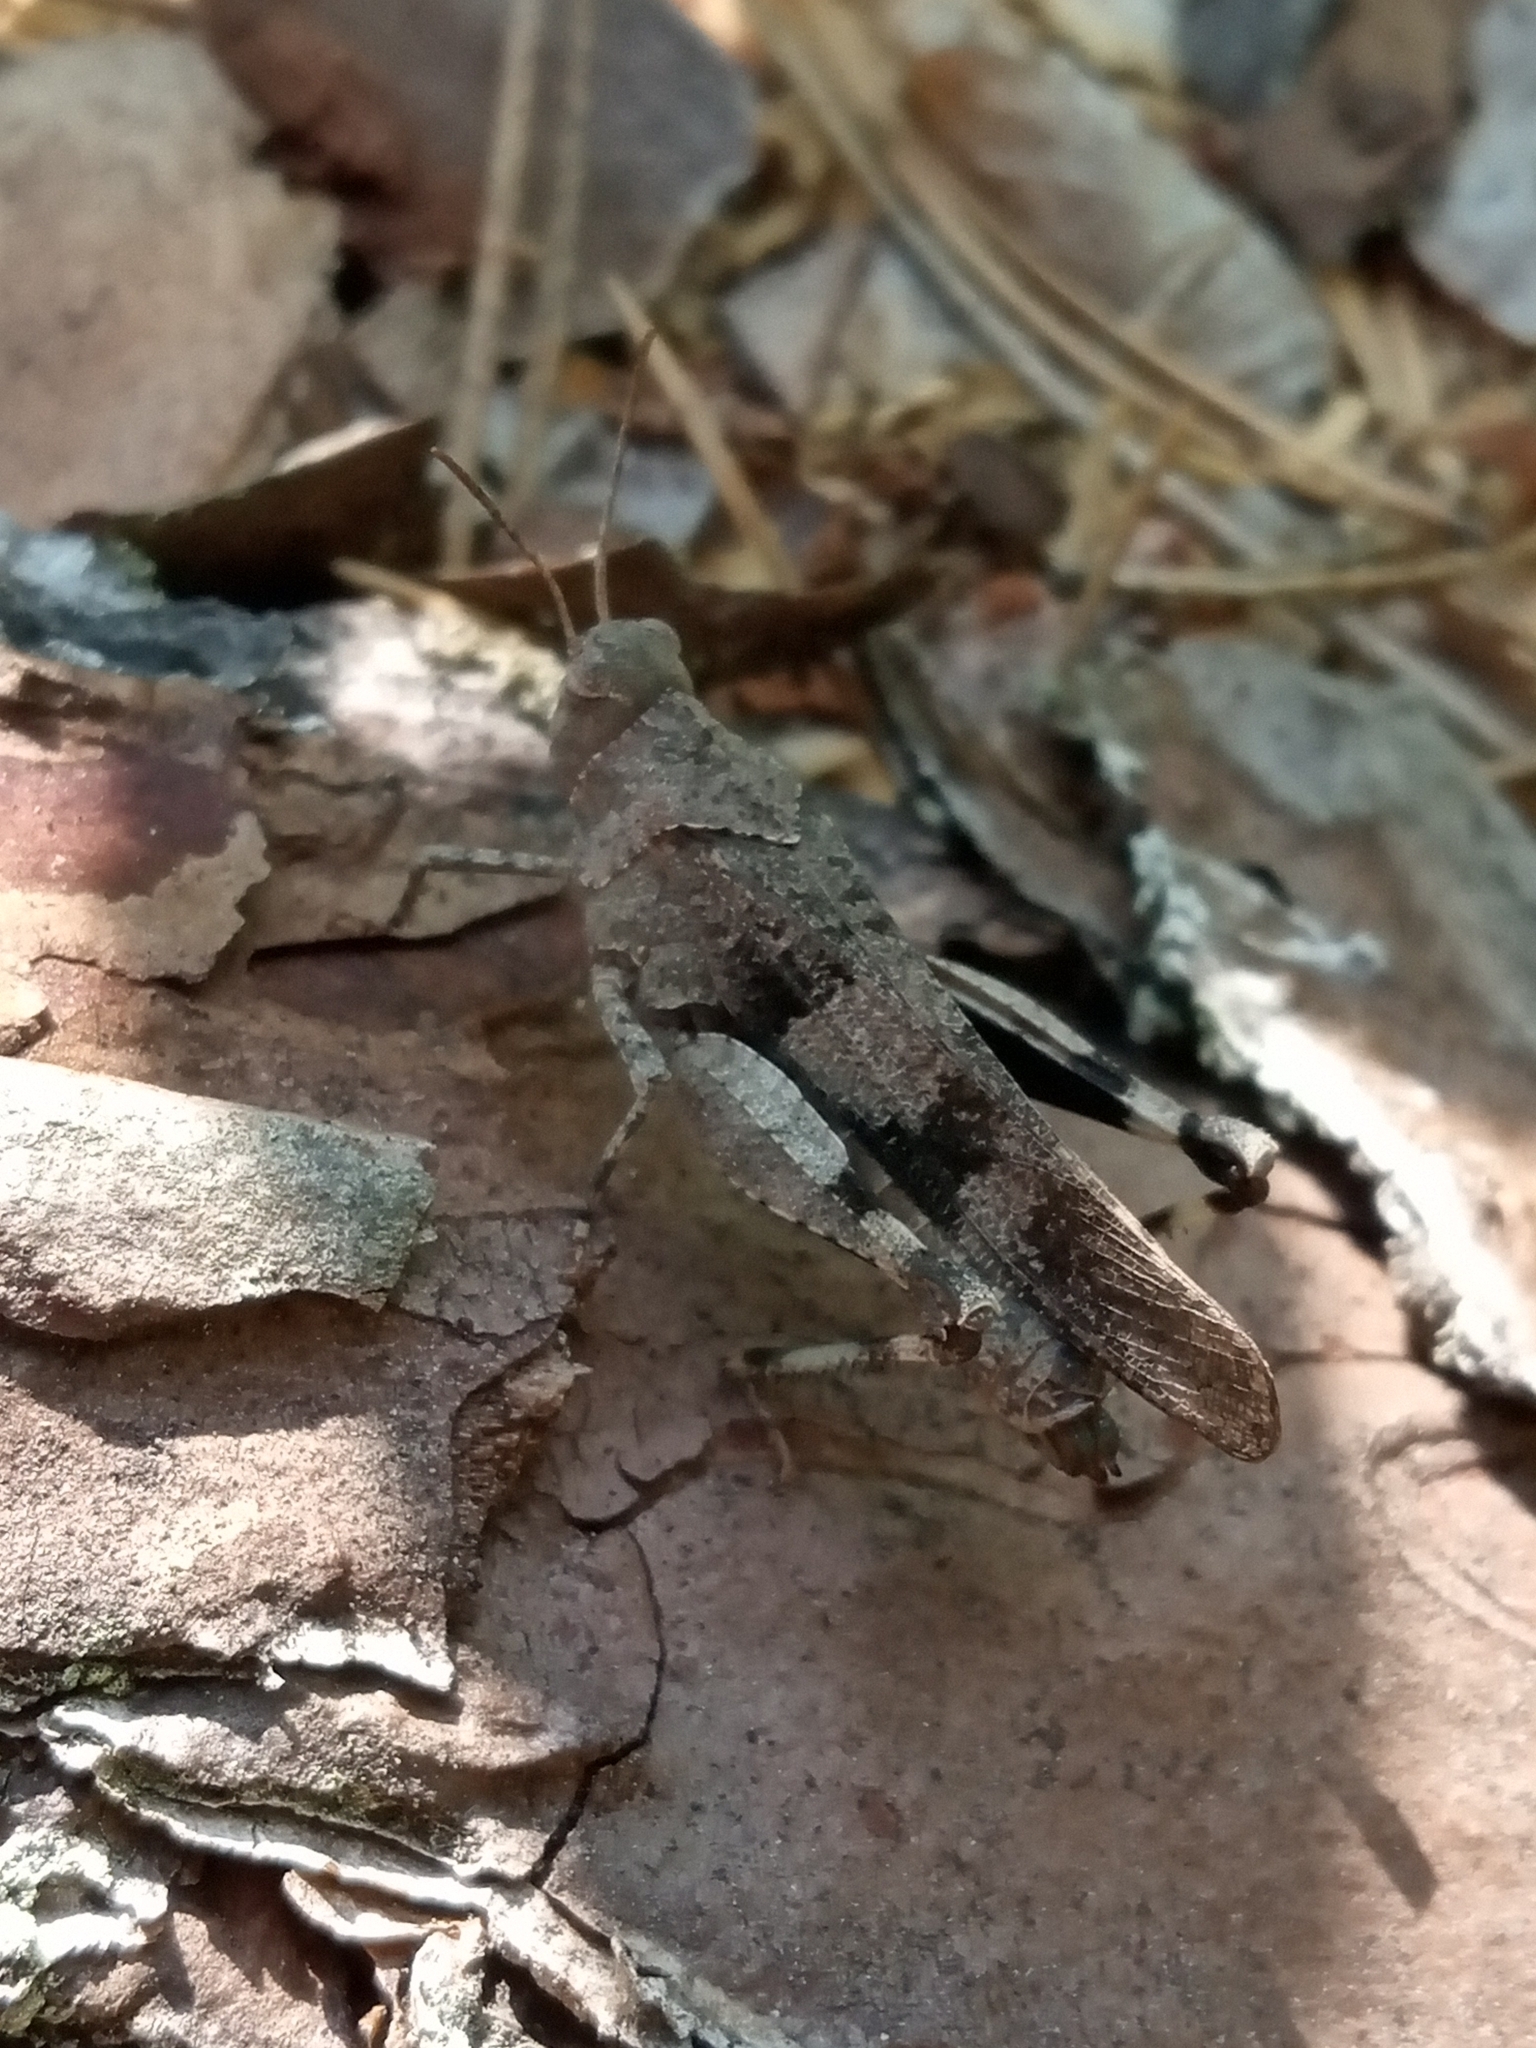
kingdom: Animalia
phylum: Arthropoda
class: Insecta
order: Orthoptera
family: Acrididae
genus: Oedipoda
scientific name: Oedipoda caerulescens
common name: Blue-winged grasshopper
